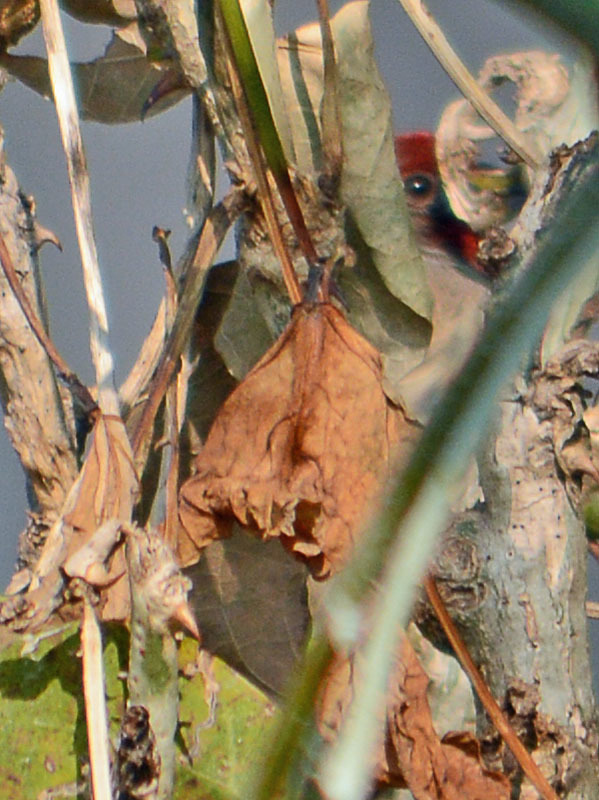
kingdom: Animalia
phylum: Chordata
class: Aves
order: Passeriformes
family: Fringillidae
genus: Haemorhous
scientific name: Haemorhous mexicanus
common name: House finch
